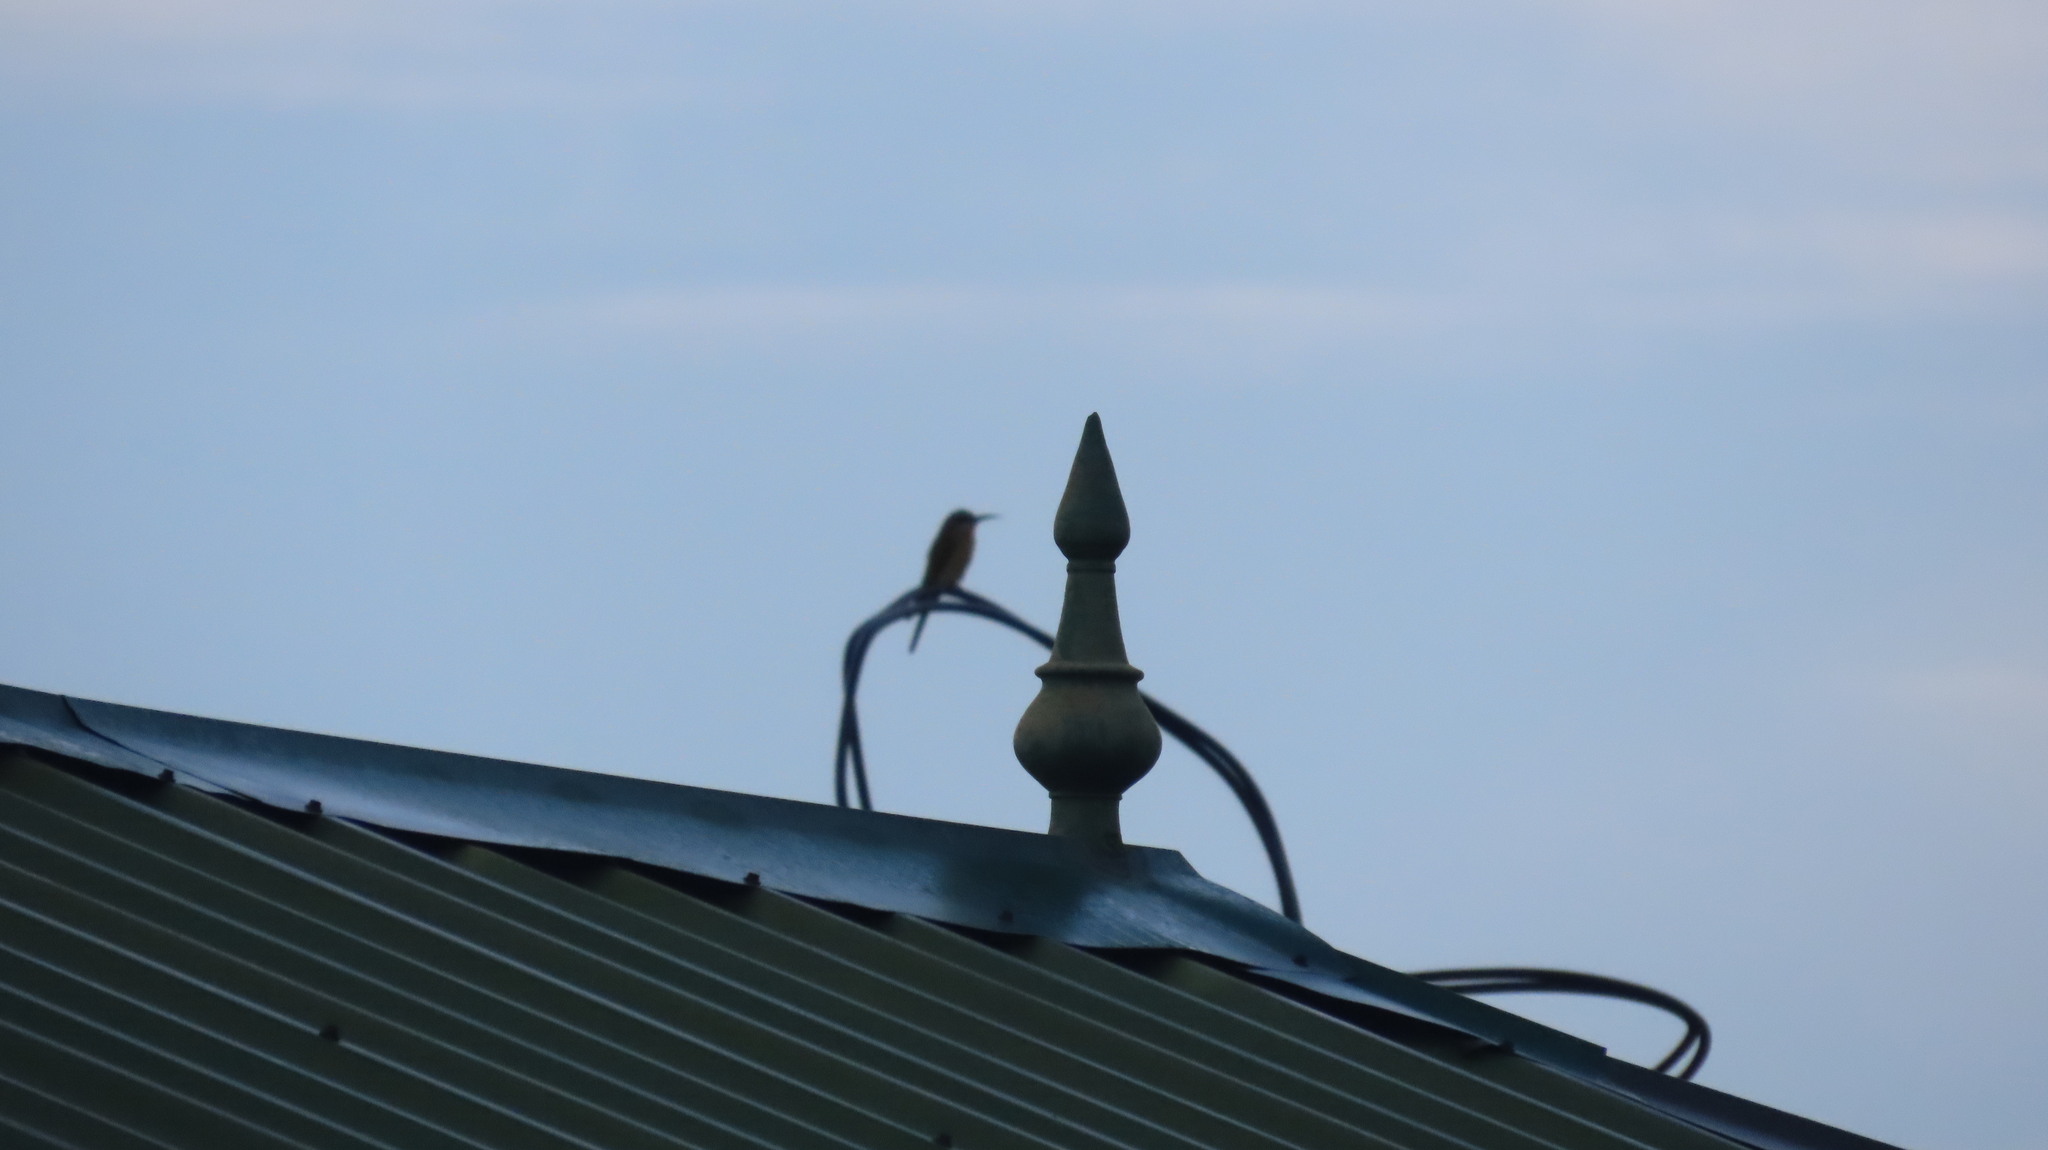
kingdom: Animalia
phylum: Chordata
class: Aves
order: Coraciiformes
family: Meropidae
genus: Merops
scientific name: Merops philippinus
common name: Blue-tailed bee-eater
